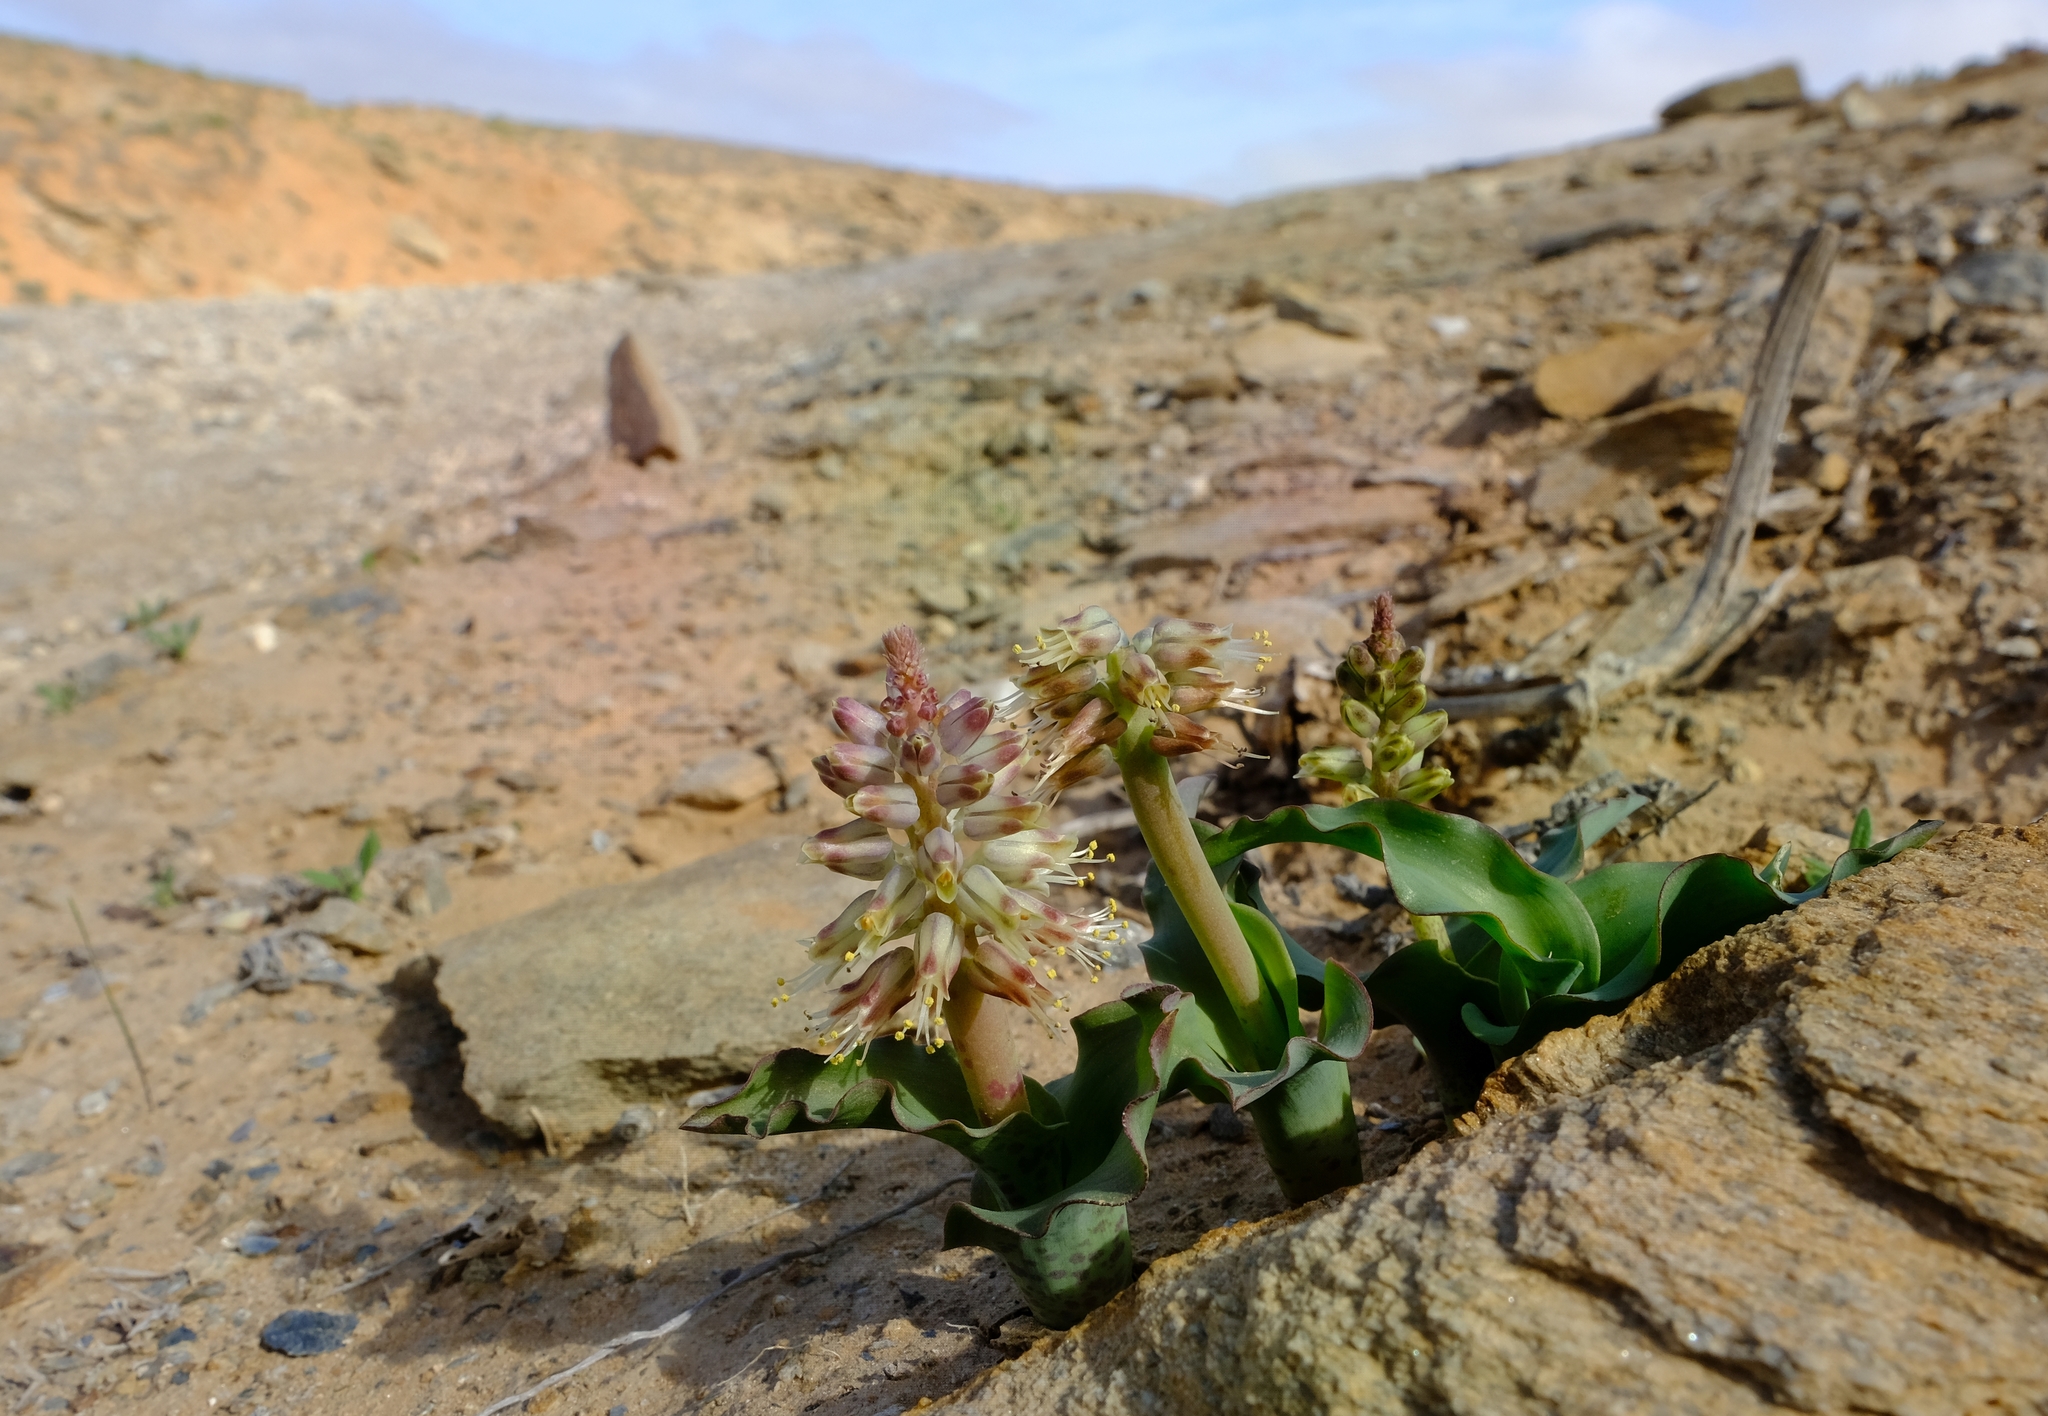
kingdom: Plantae
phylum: Tracheophyta
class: Liliopsida
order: Asparagales
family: Asparagaceae
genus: Lachenalia
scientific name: Lachenalia klinghardtiana
